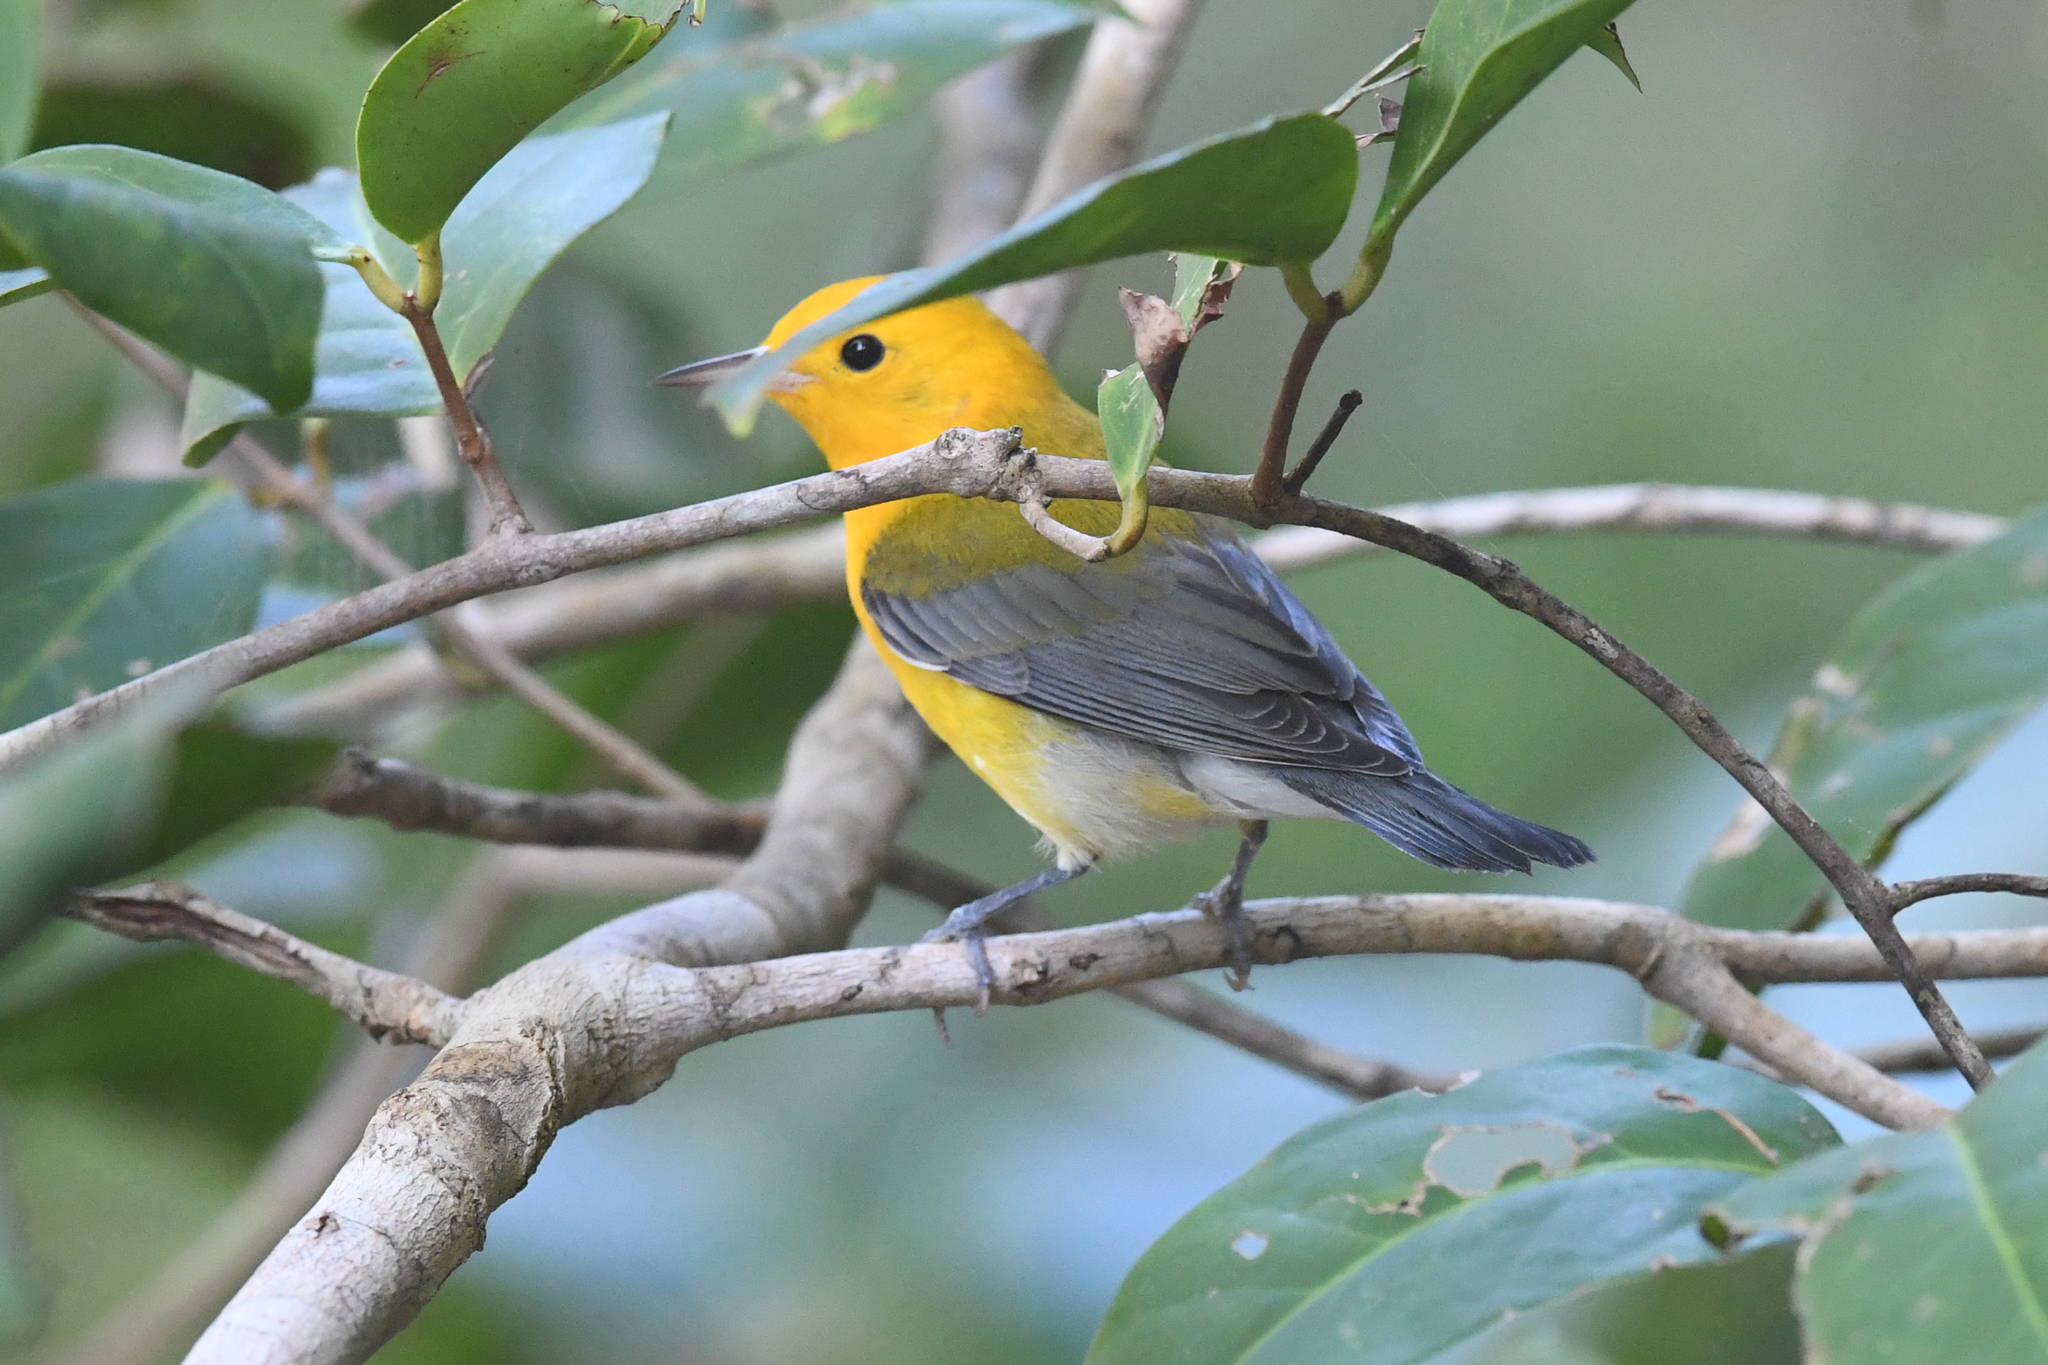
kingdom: Animalia
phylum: Chordata
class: Aves
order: Passeriformes
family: Parulidae
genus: Protonotaria
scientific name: Protonotaria citrea
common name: Prothonotary warbler
